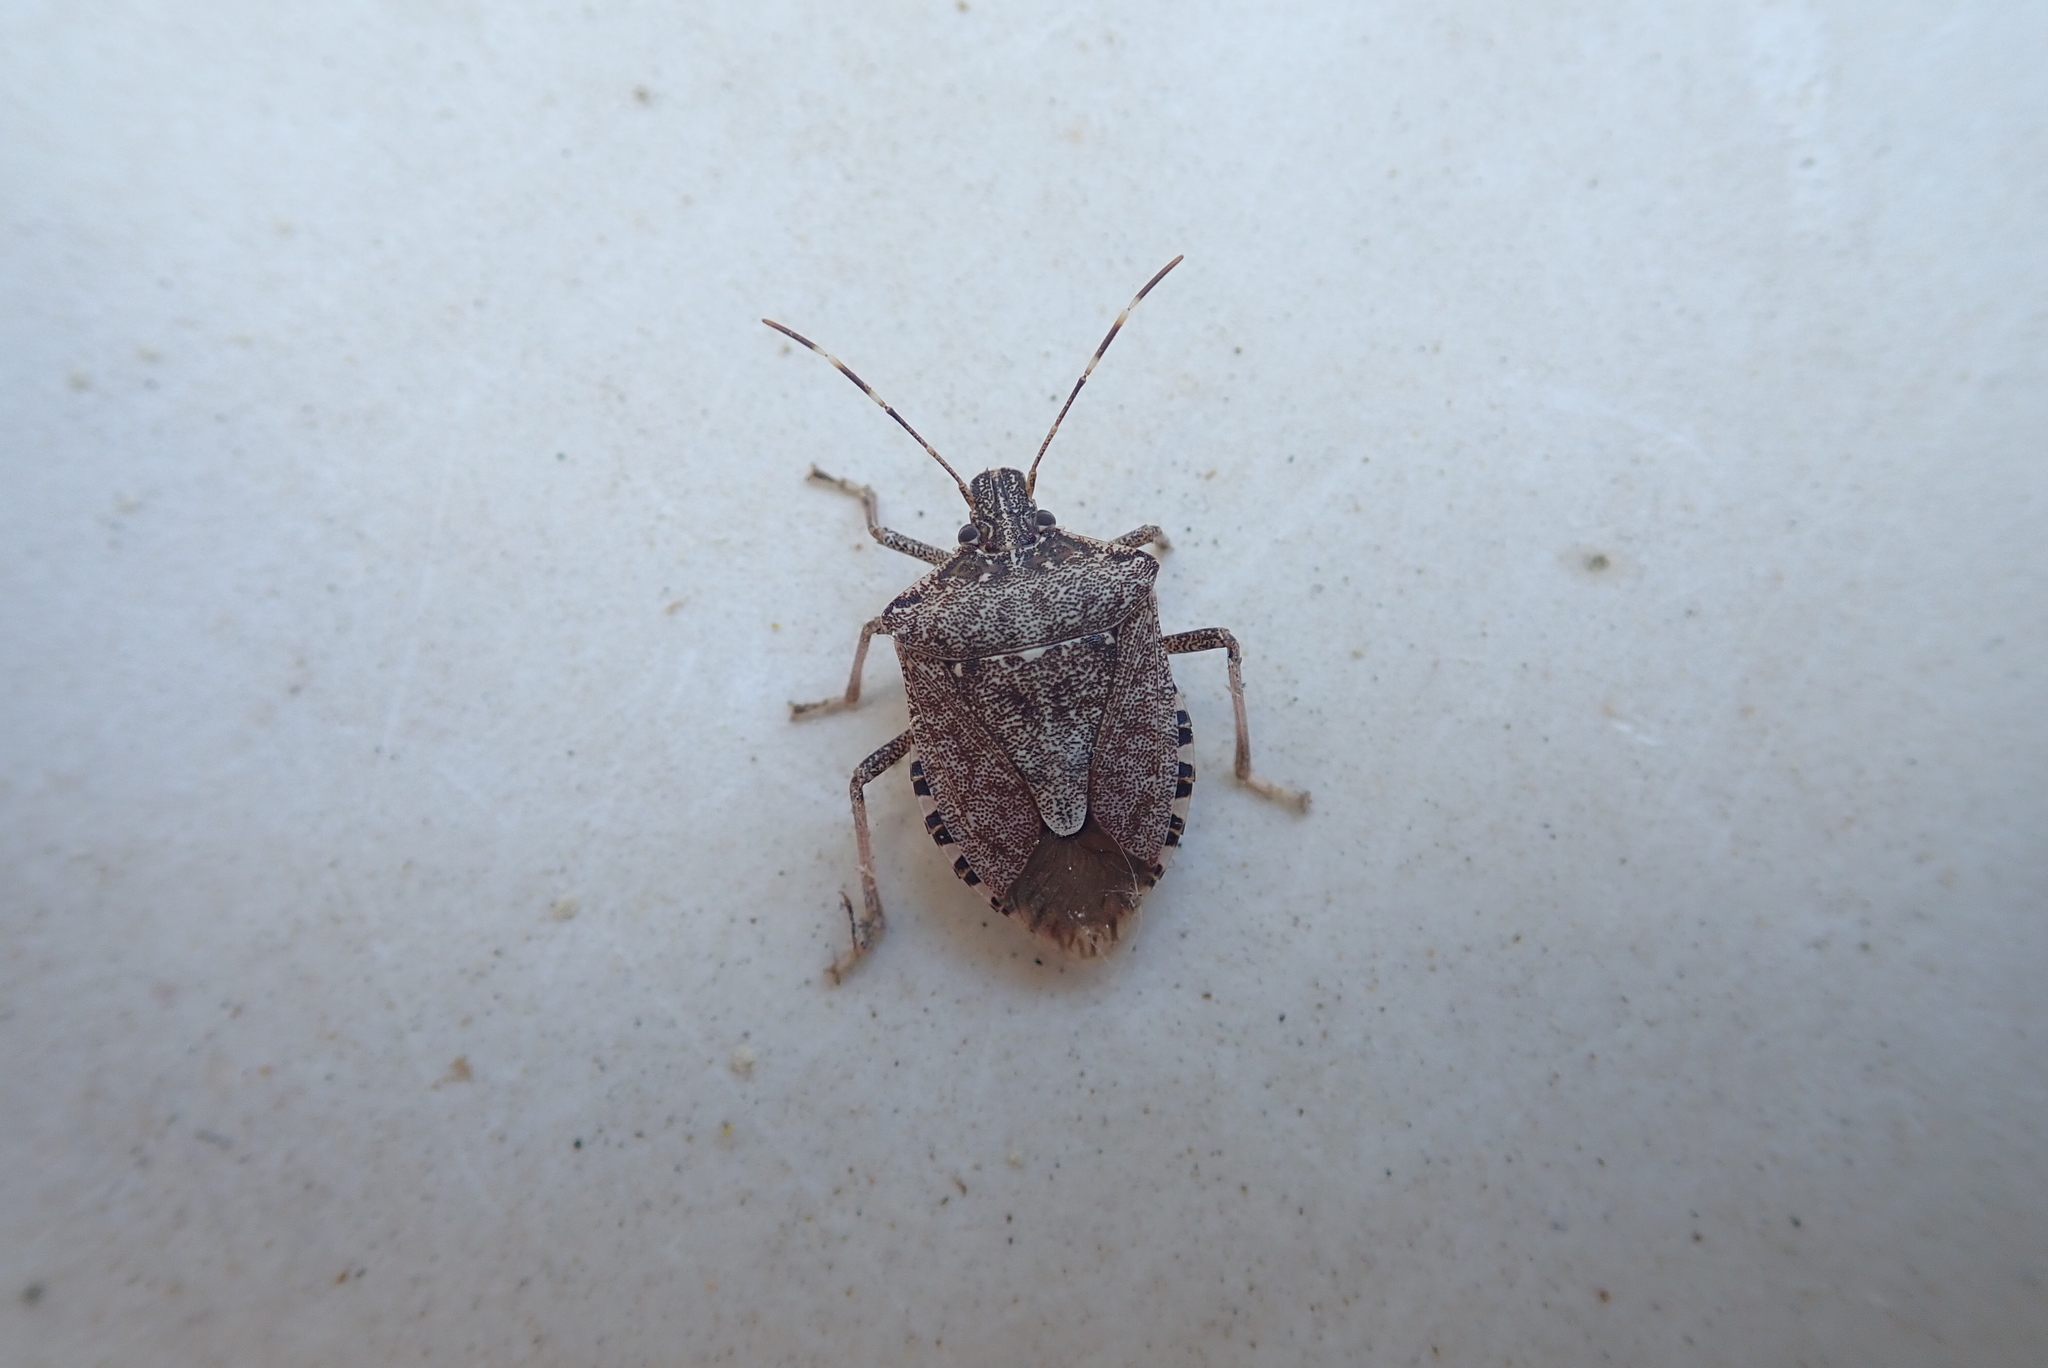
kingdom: Animalia
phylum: Arthropoda
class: Insecta
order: Hemiptera
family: Pentatomidae
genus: Halyomorpha
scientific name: Halyomorpha halys
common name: Brown marmorated stink bug
